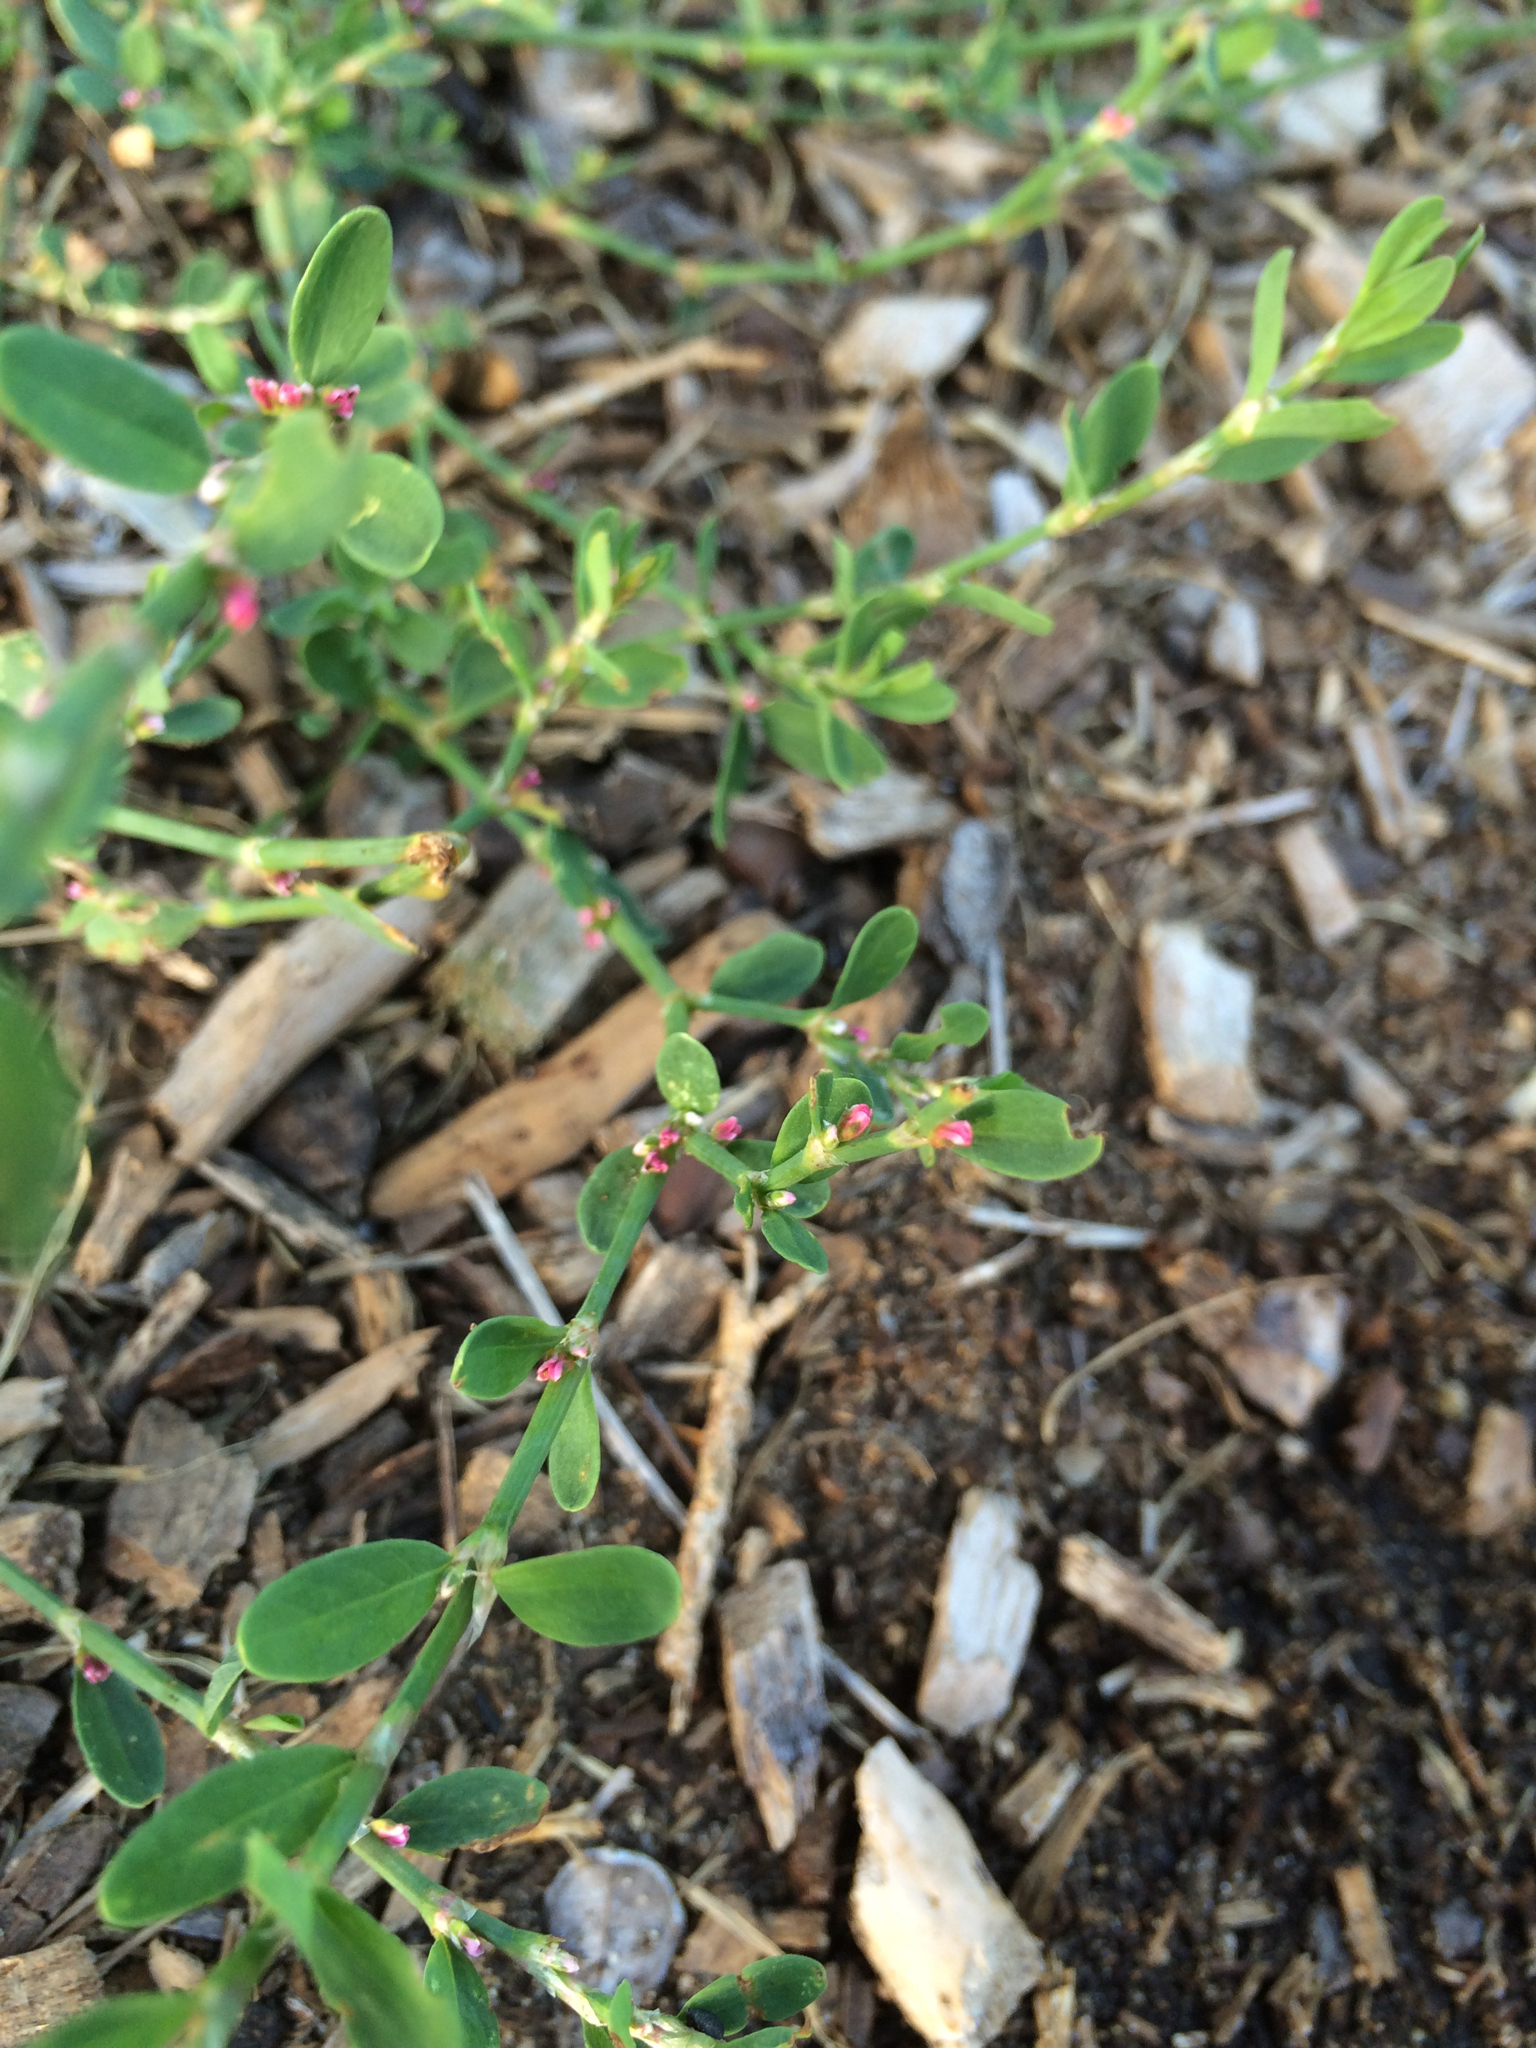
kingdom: Plantae
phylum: Tracheophyta
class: Magnoliopsida
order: Caryophyllales
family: Polygonaceae
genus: Polygonum
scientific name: Polygonum aviculare
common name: Prostrate knotweed
